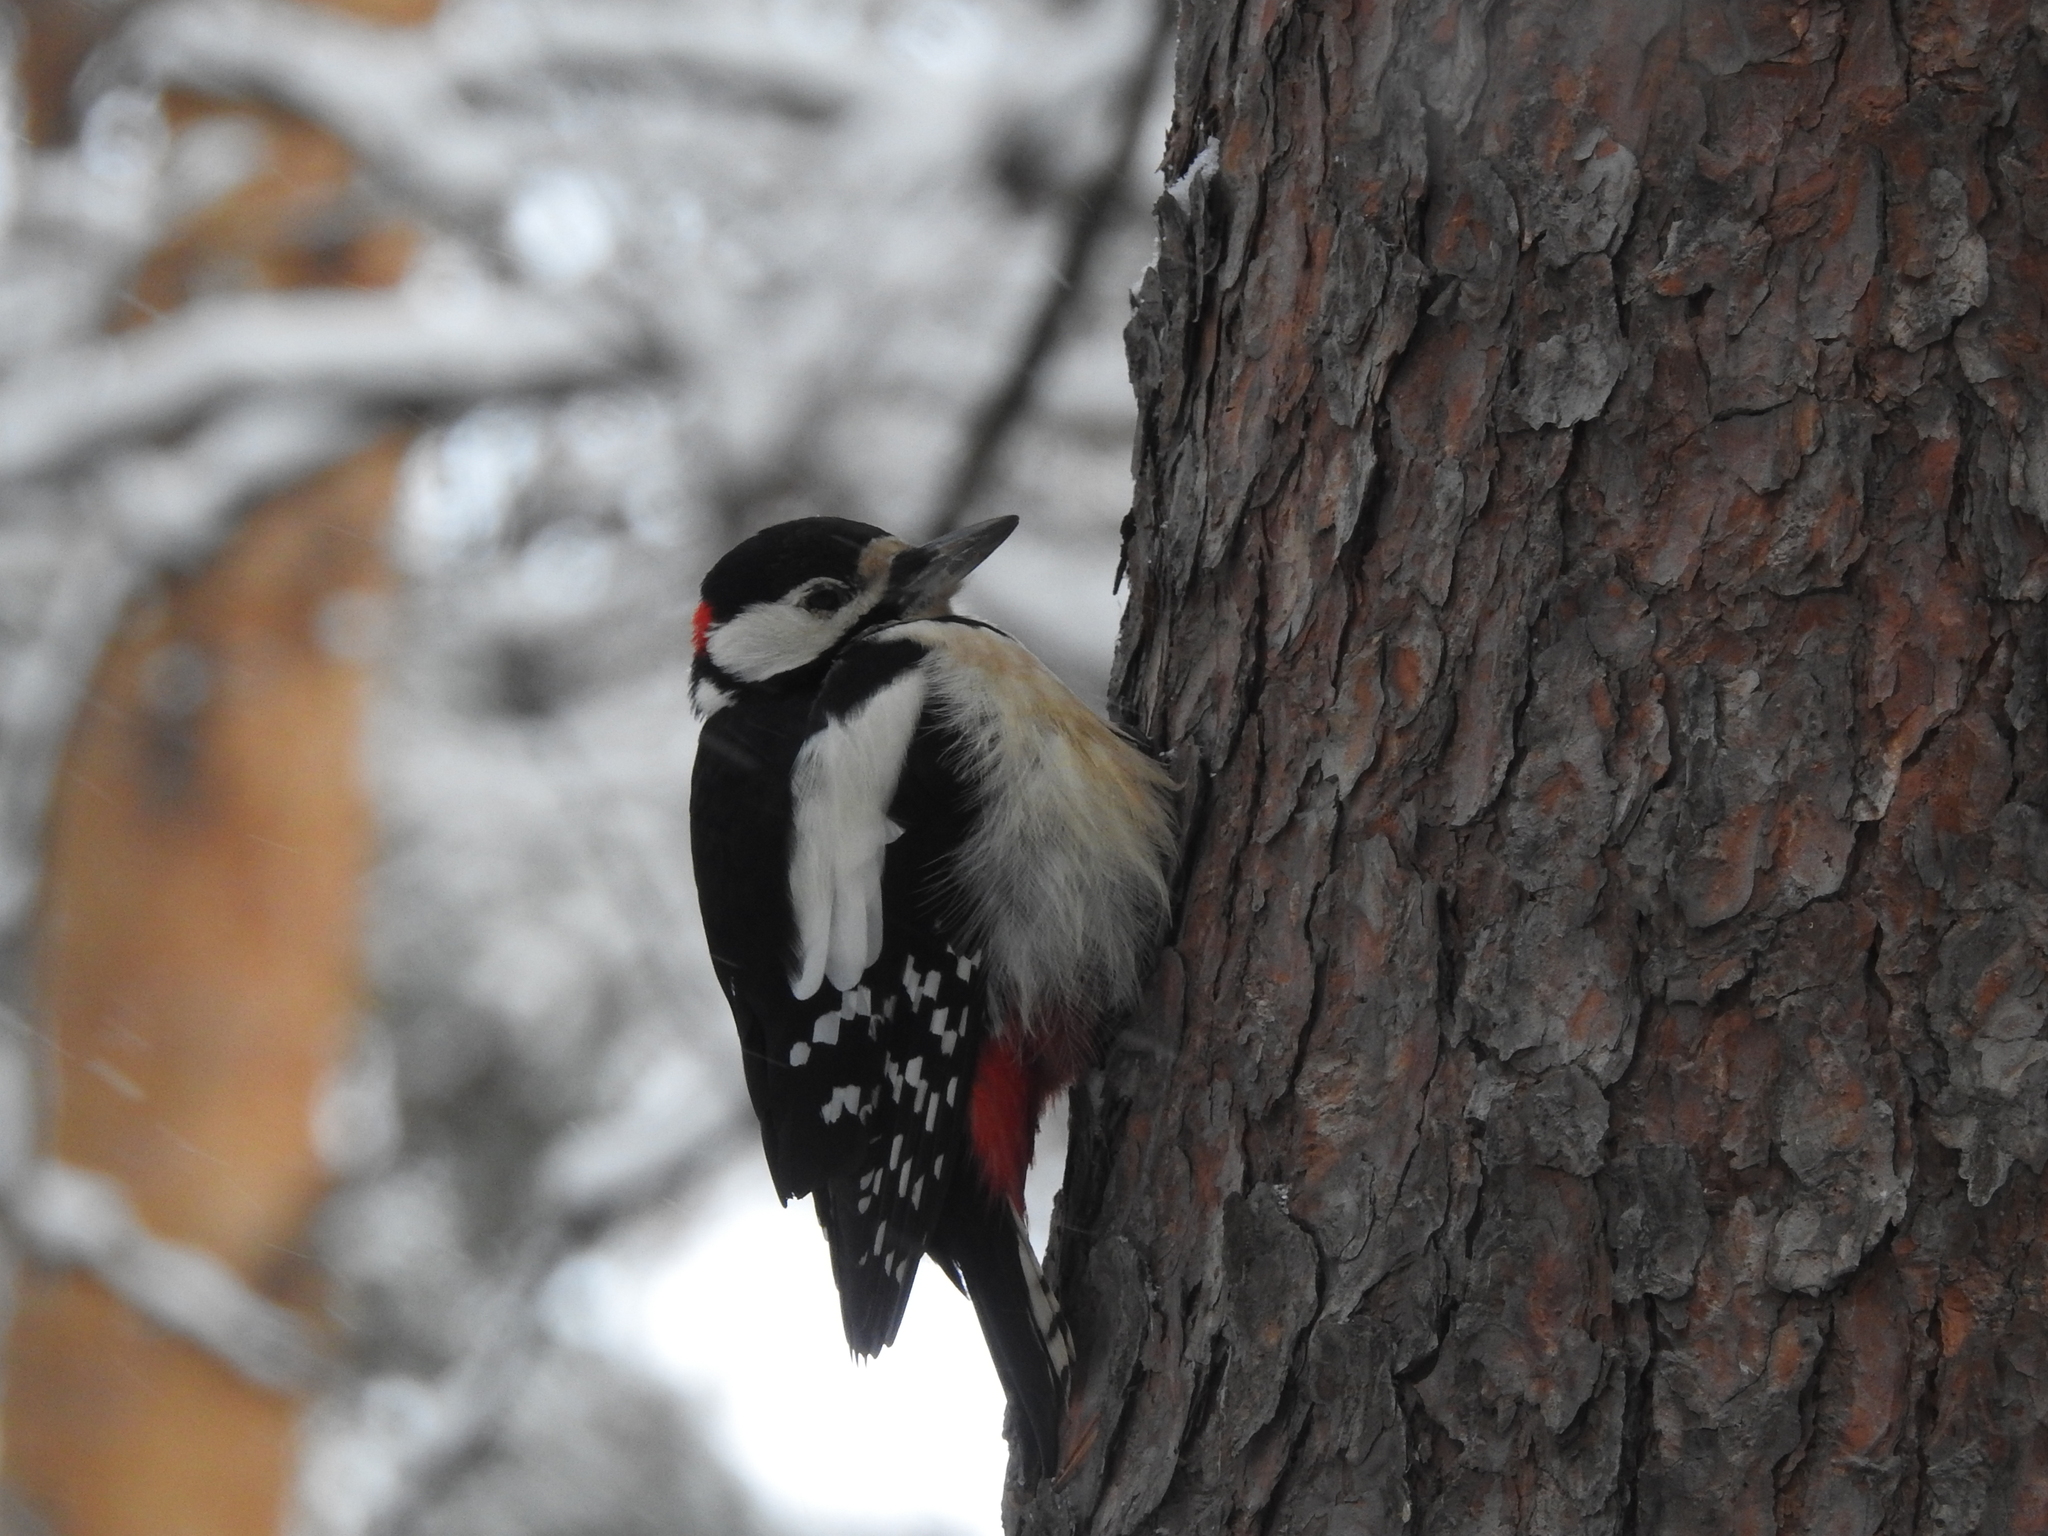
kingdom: Animalia
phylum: Chordata
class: Aves
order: Piciformes
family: Picidae
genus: Dendrocopos
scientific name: Dendrocopos major
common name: Great spotted woodpecker
